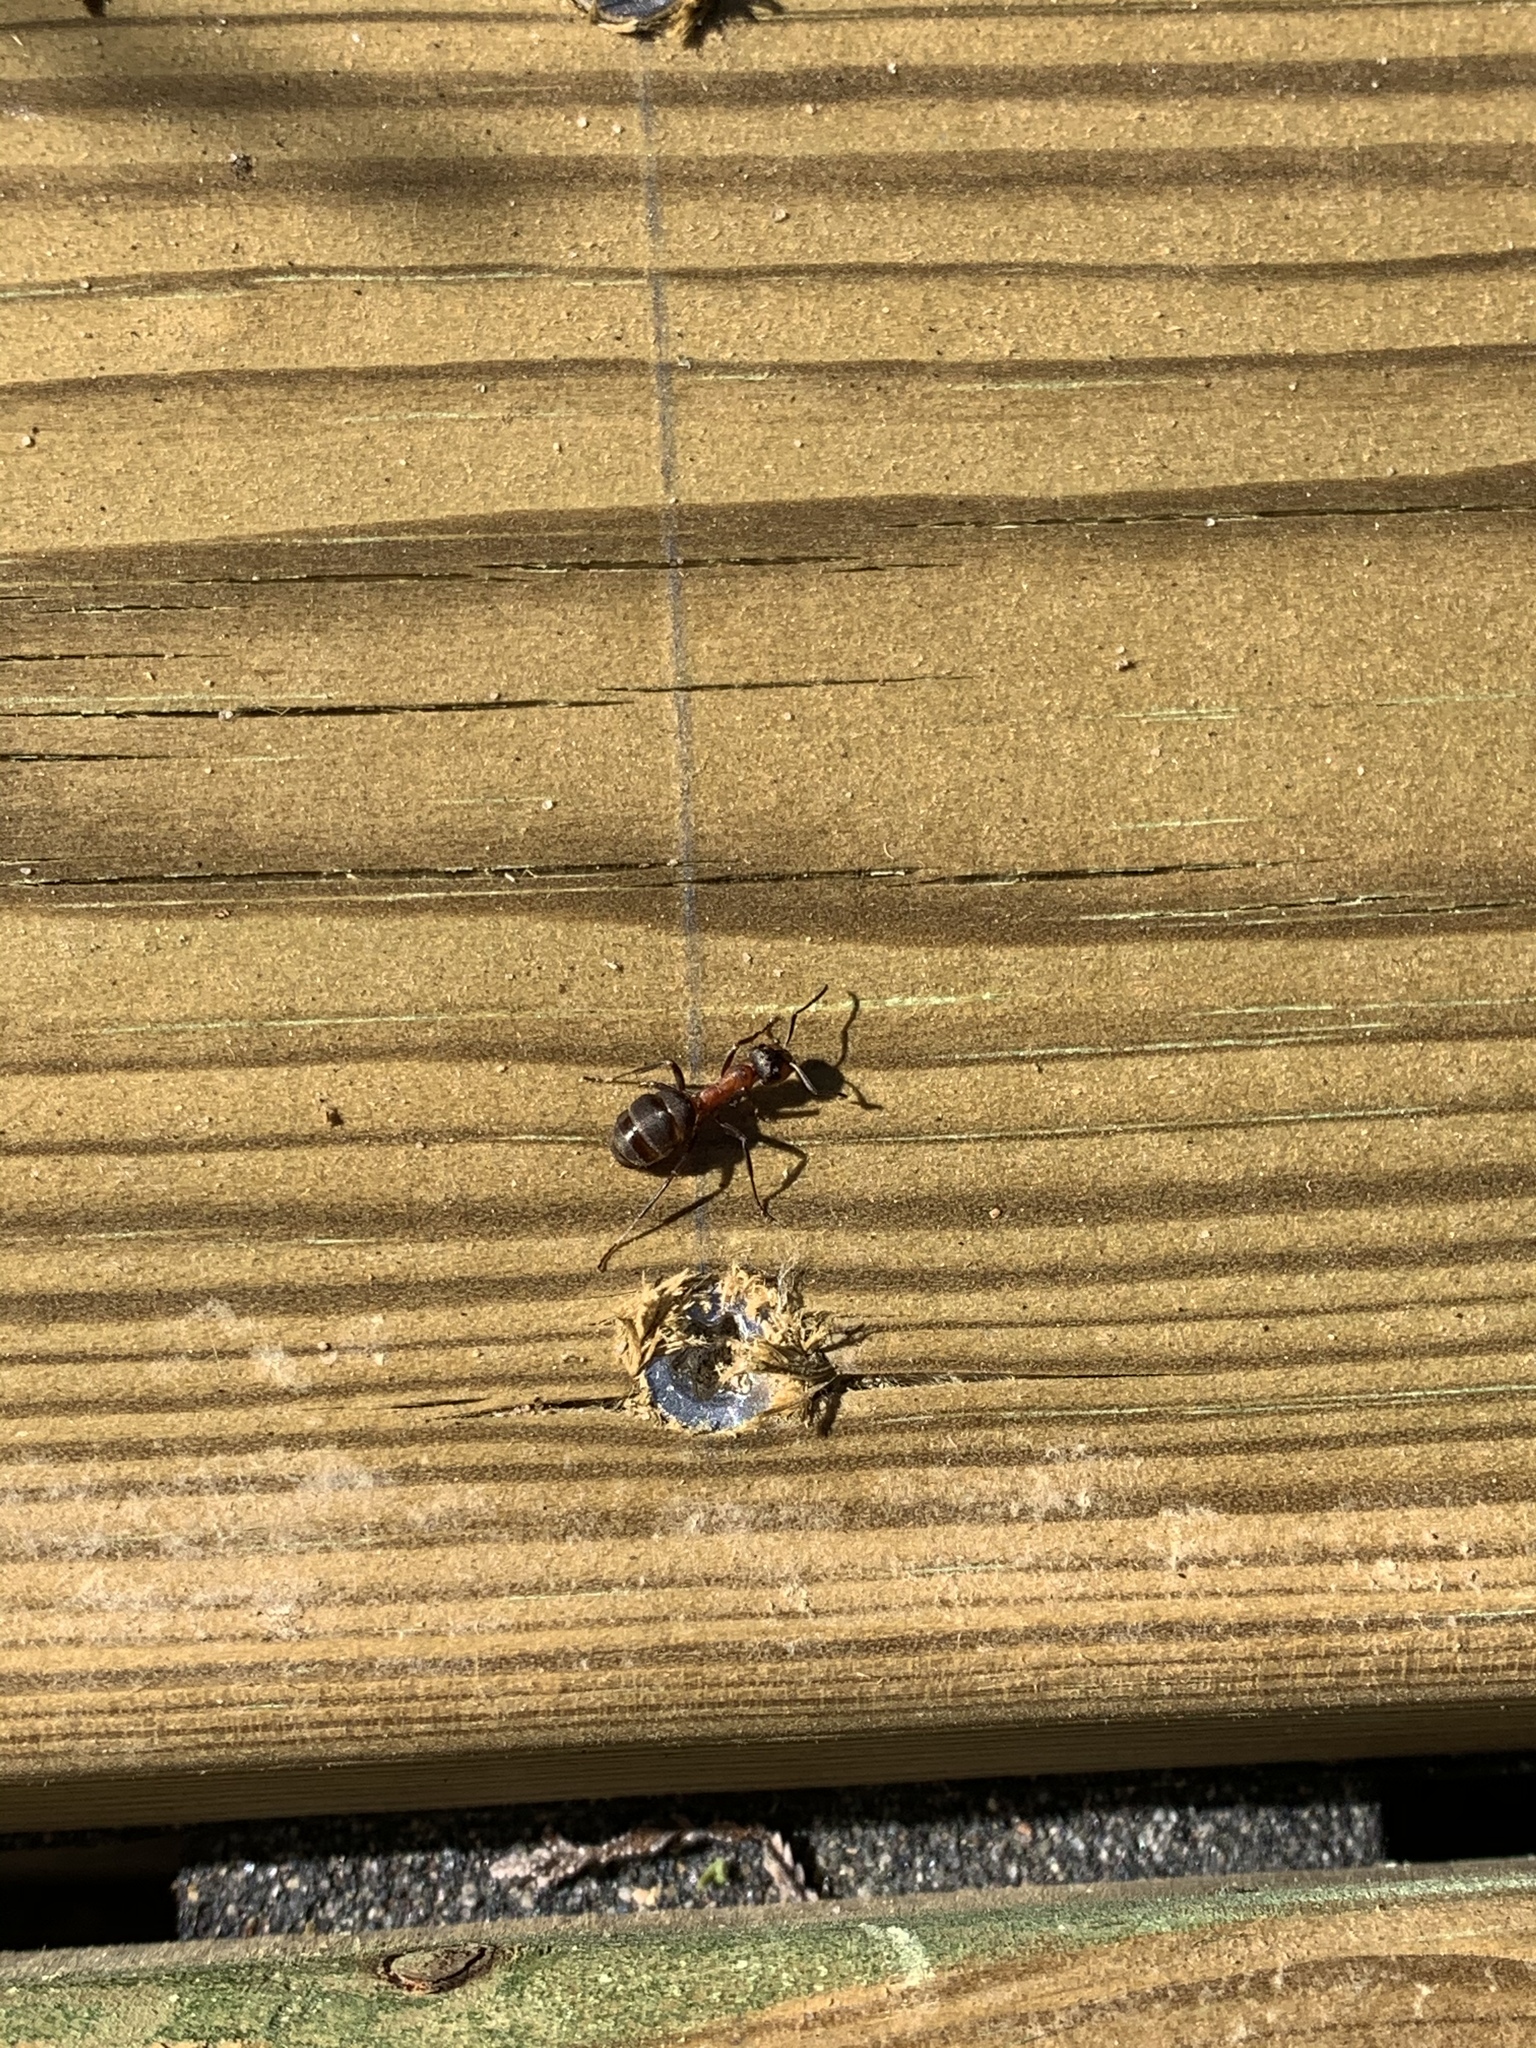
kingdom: Animalia
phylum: Arthropoda
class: Insecta
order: Hymenoptera
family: Formicidae
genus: Formica
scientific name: Formica rufa
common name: Red wood ant
